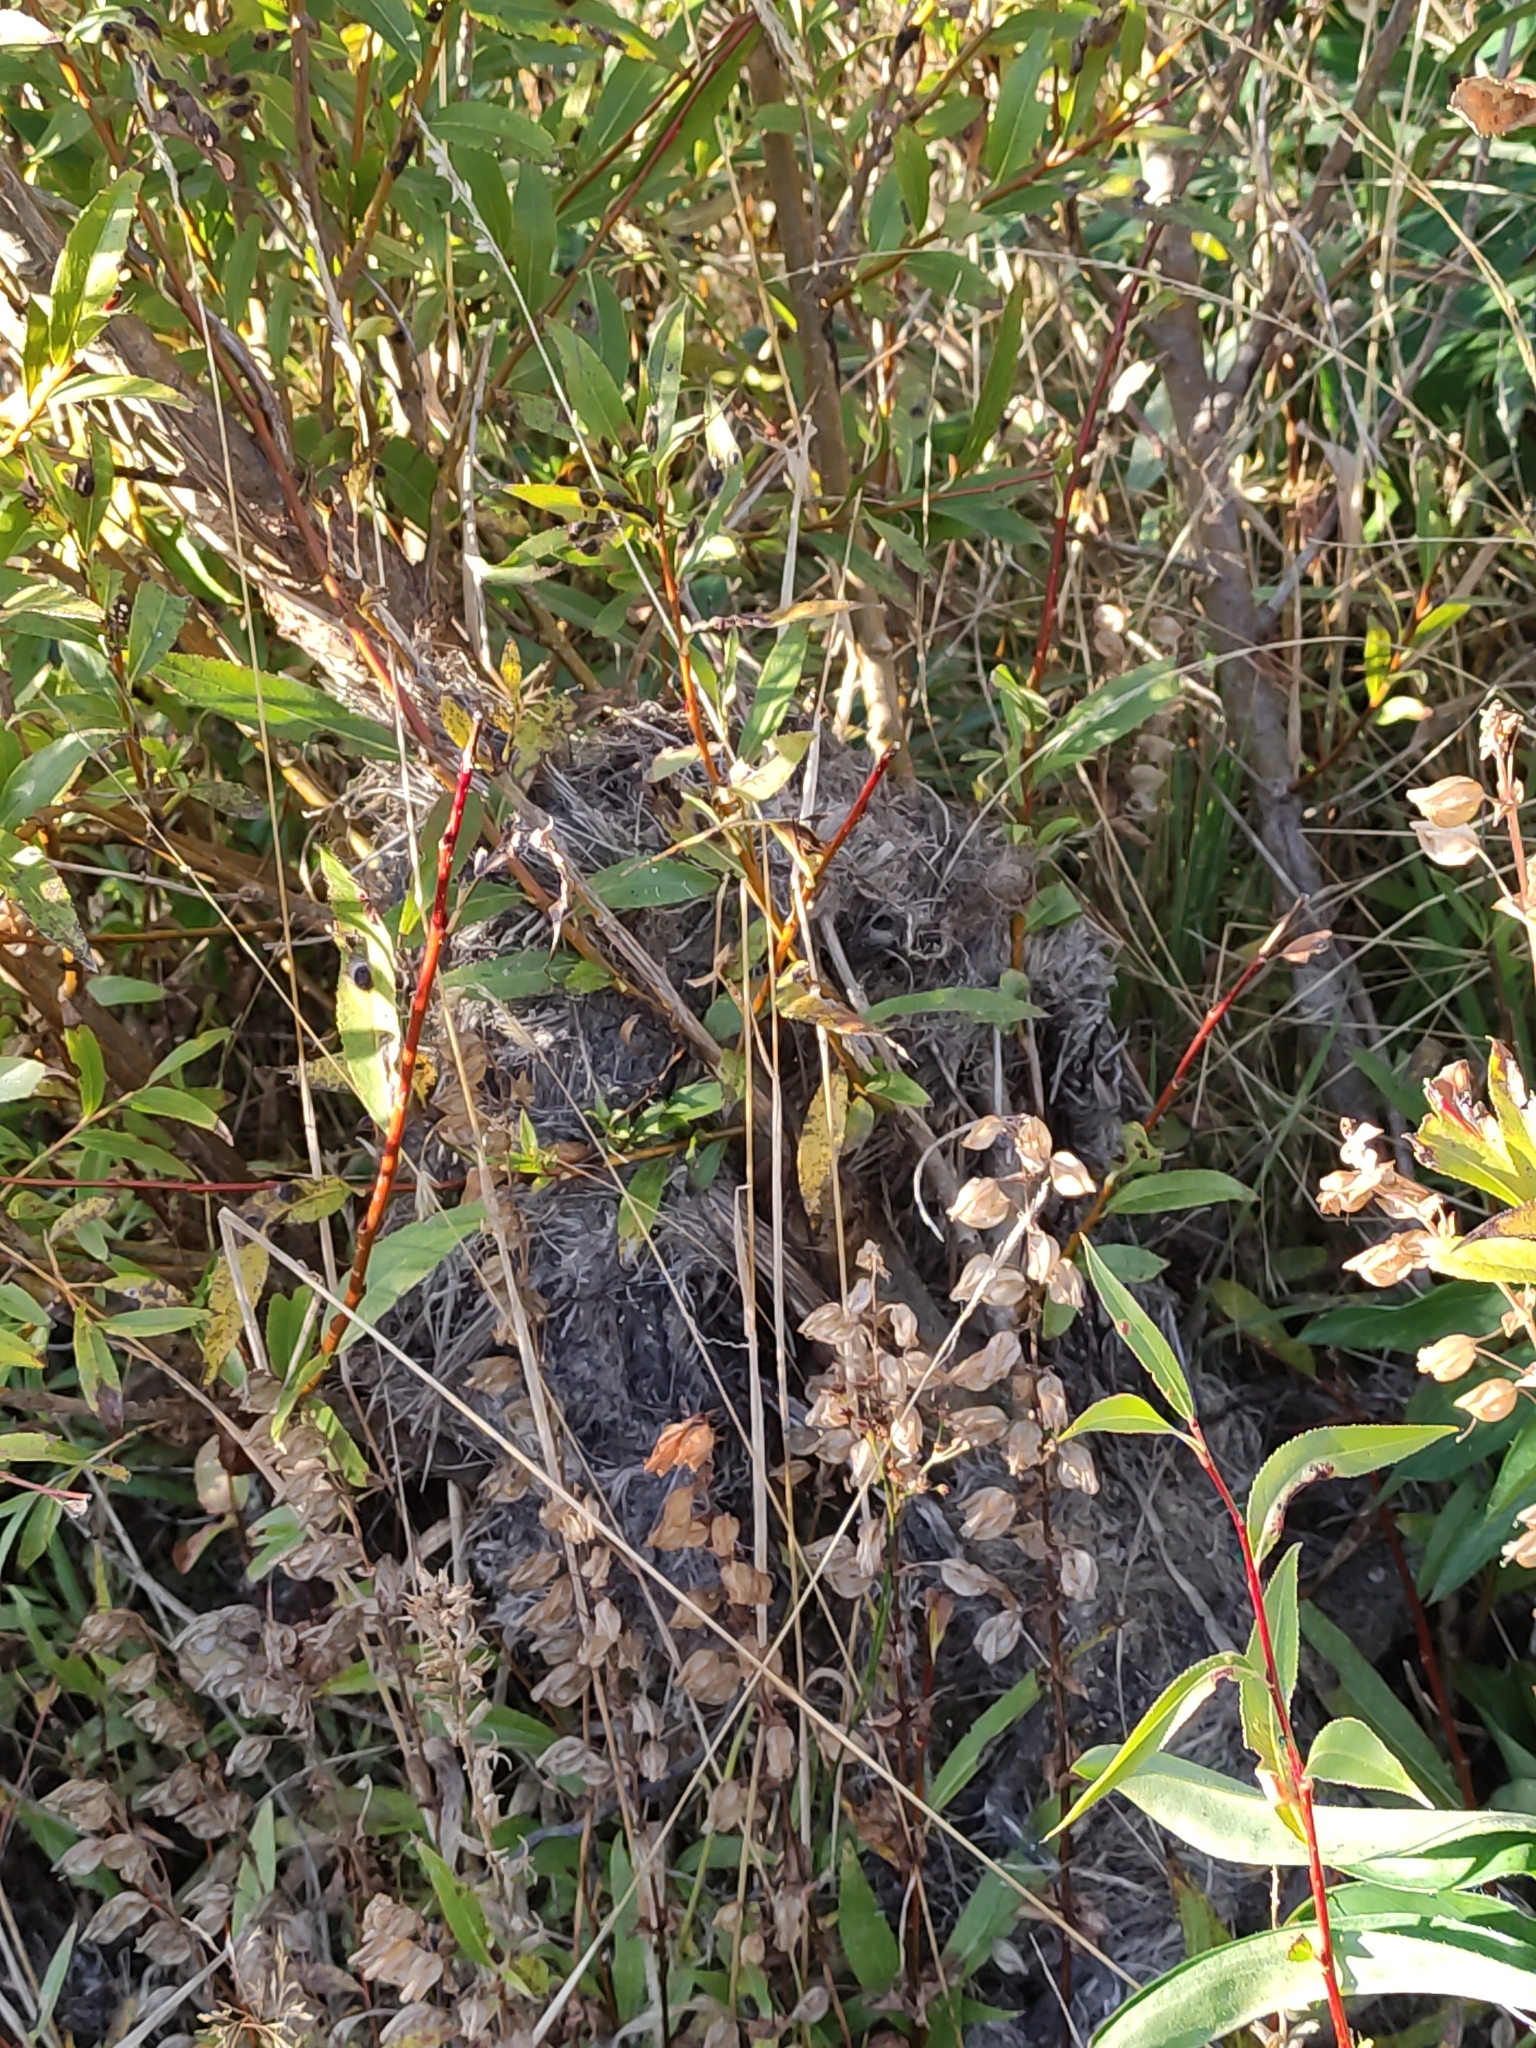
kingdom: Animalia
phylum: Arthropoda
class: Insecta
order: Hymenoptera
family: Vespidae
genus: Vespula
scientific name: Vespula germanica
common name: German wasp
